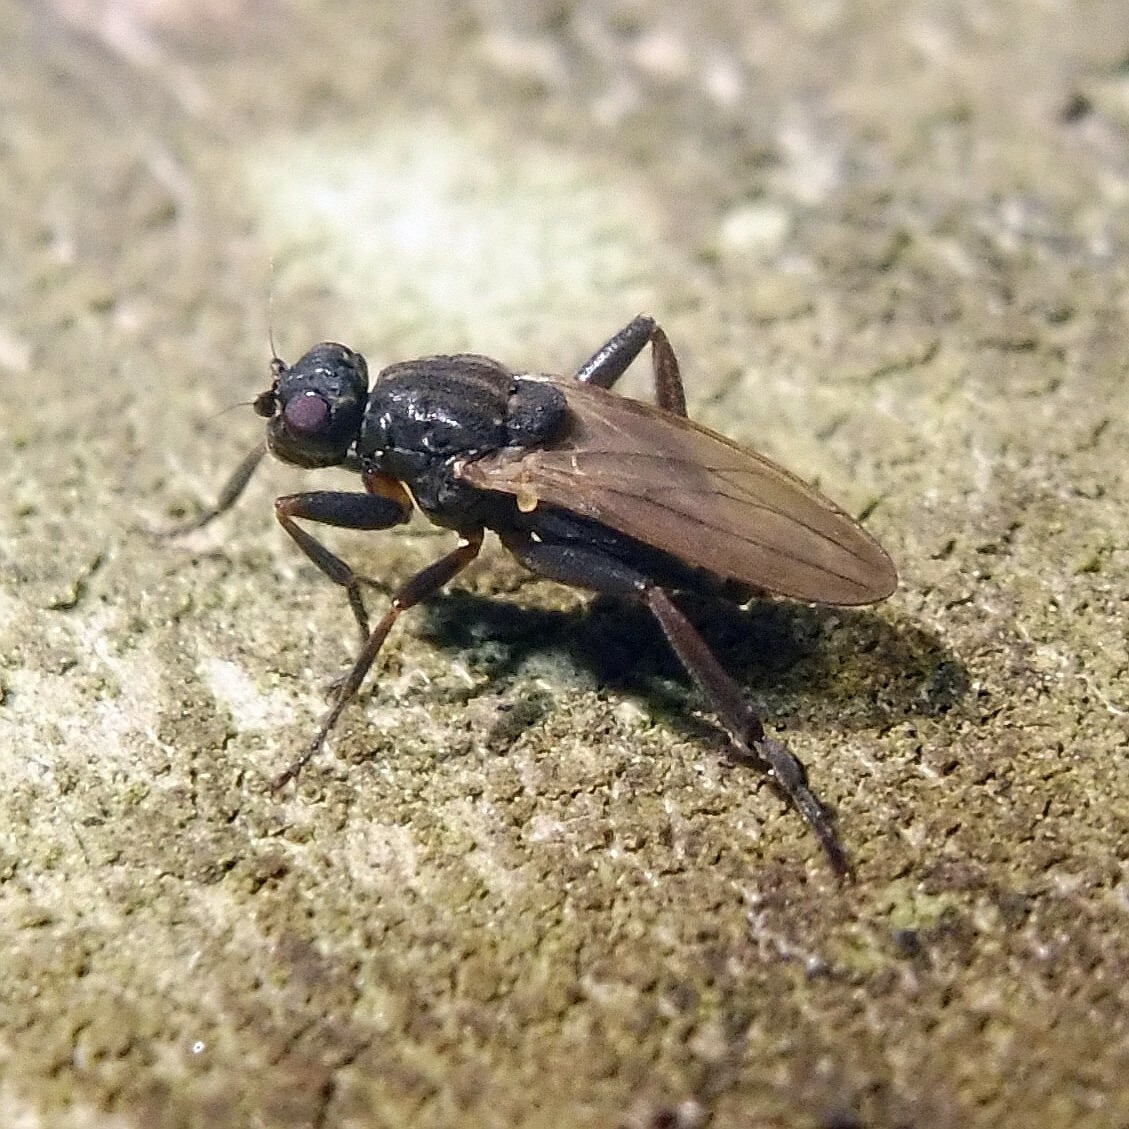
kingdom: Animalia
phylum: Arthropoda
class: Insecta
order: Diptera
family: Sphaeroceridae
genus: Sphaerocera
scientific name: Sphaerocera curvipes
